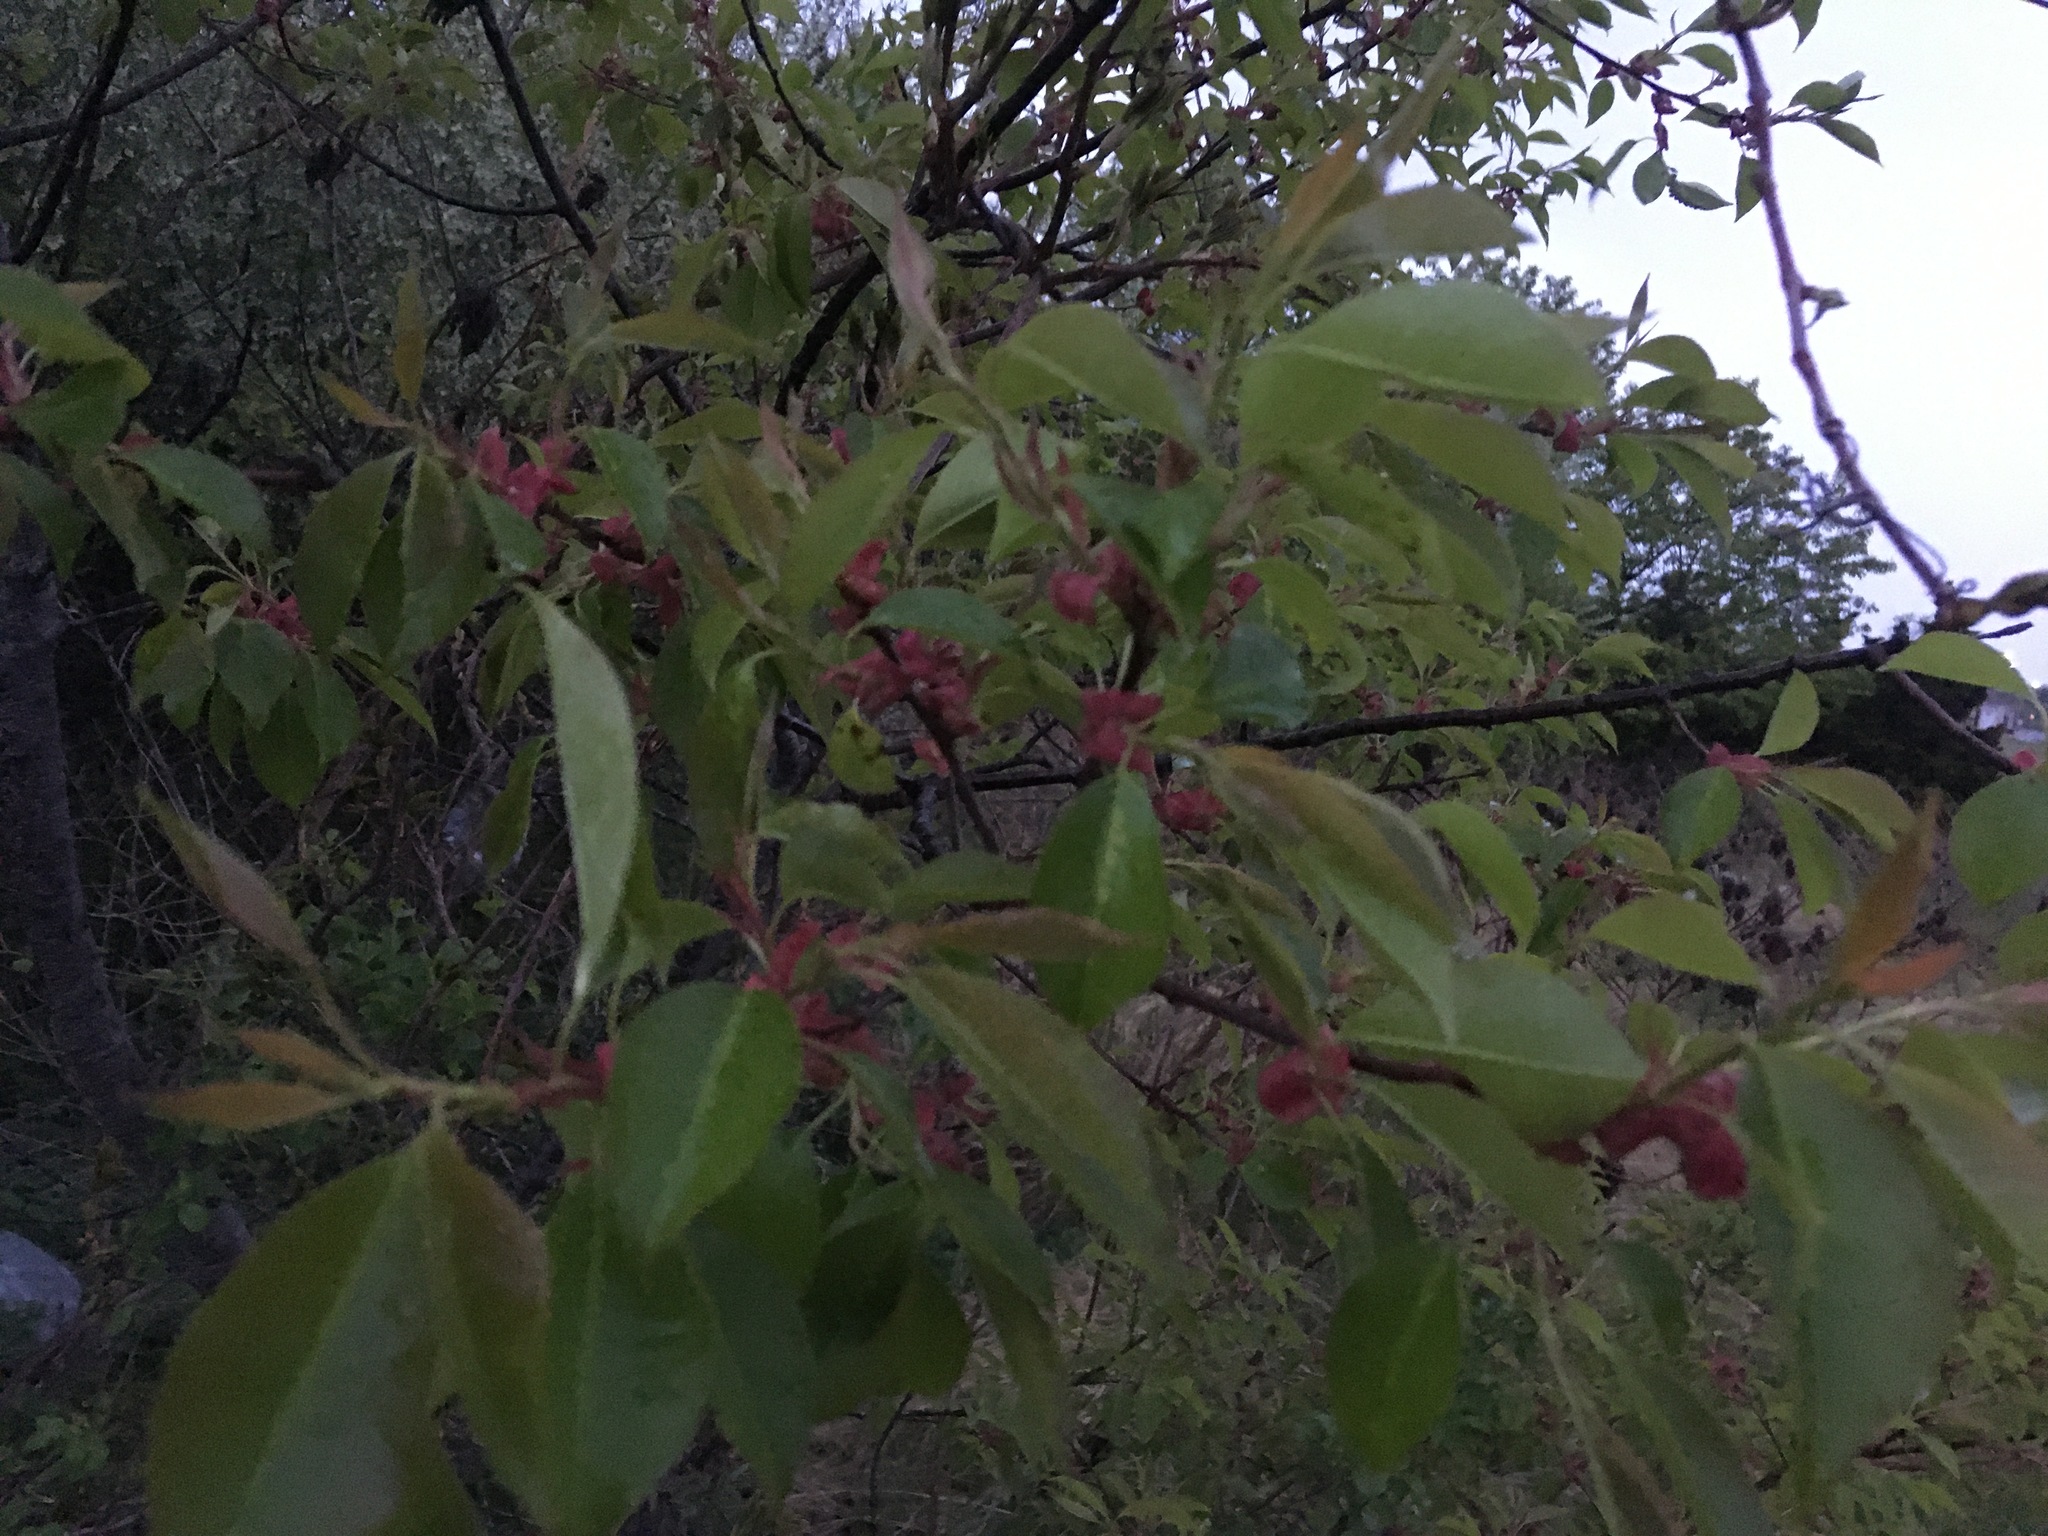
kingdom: Plantae
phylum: Tracheophyta
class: Magnoliopsida
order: Rosales
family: Rosaceae
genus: Prunus
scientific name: Prunus serotina
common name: Black cherry
